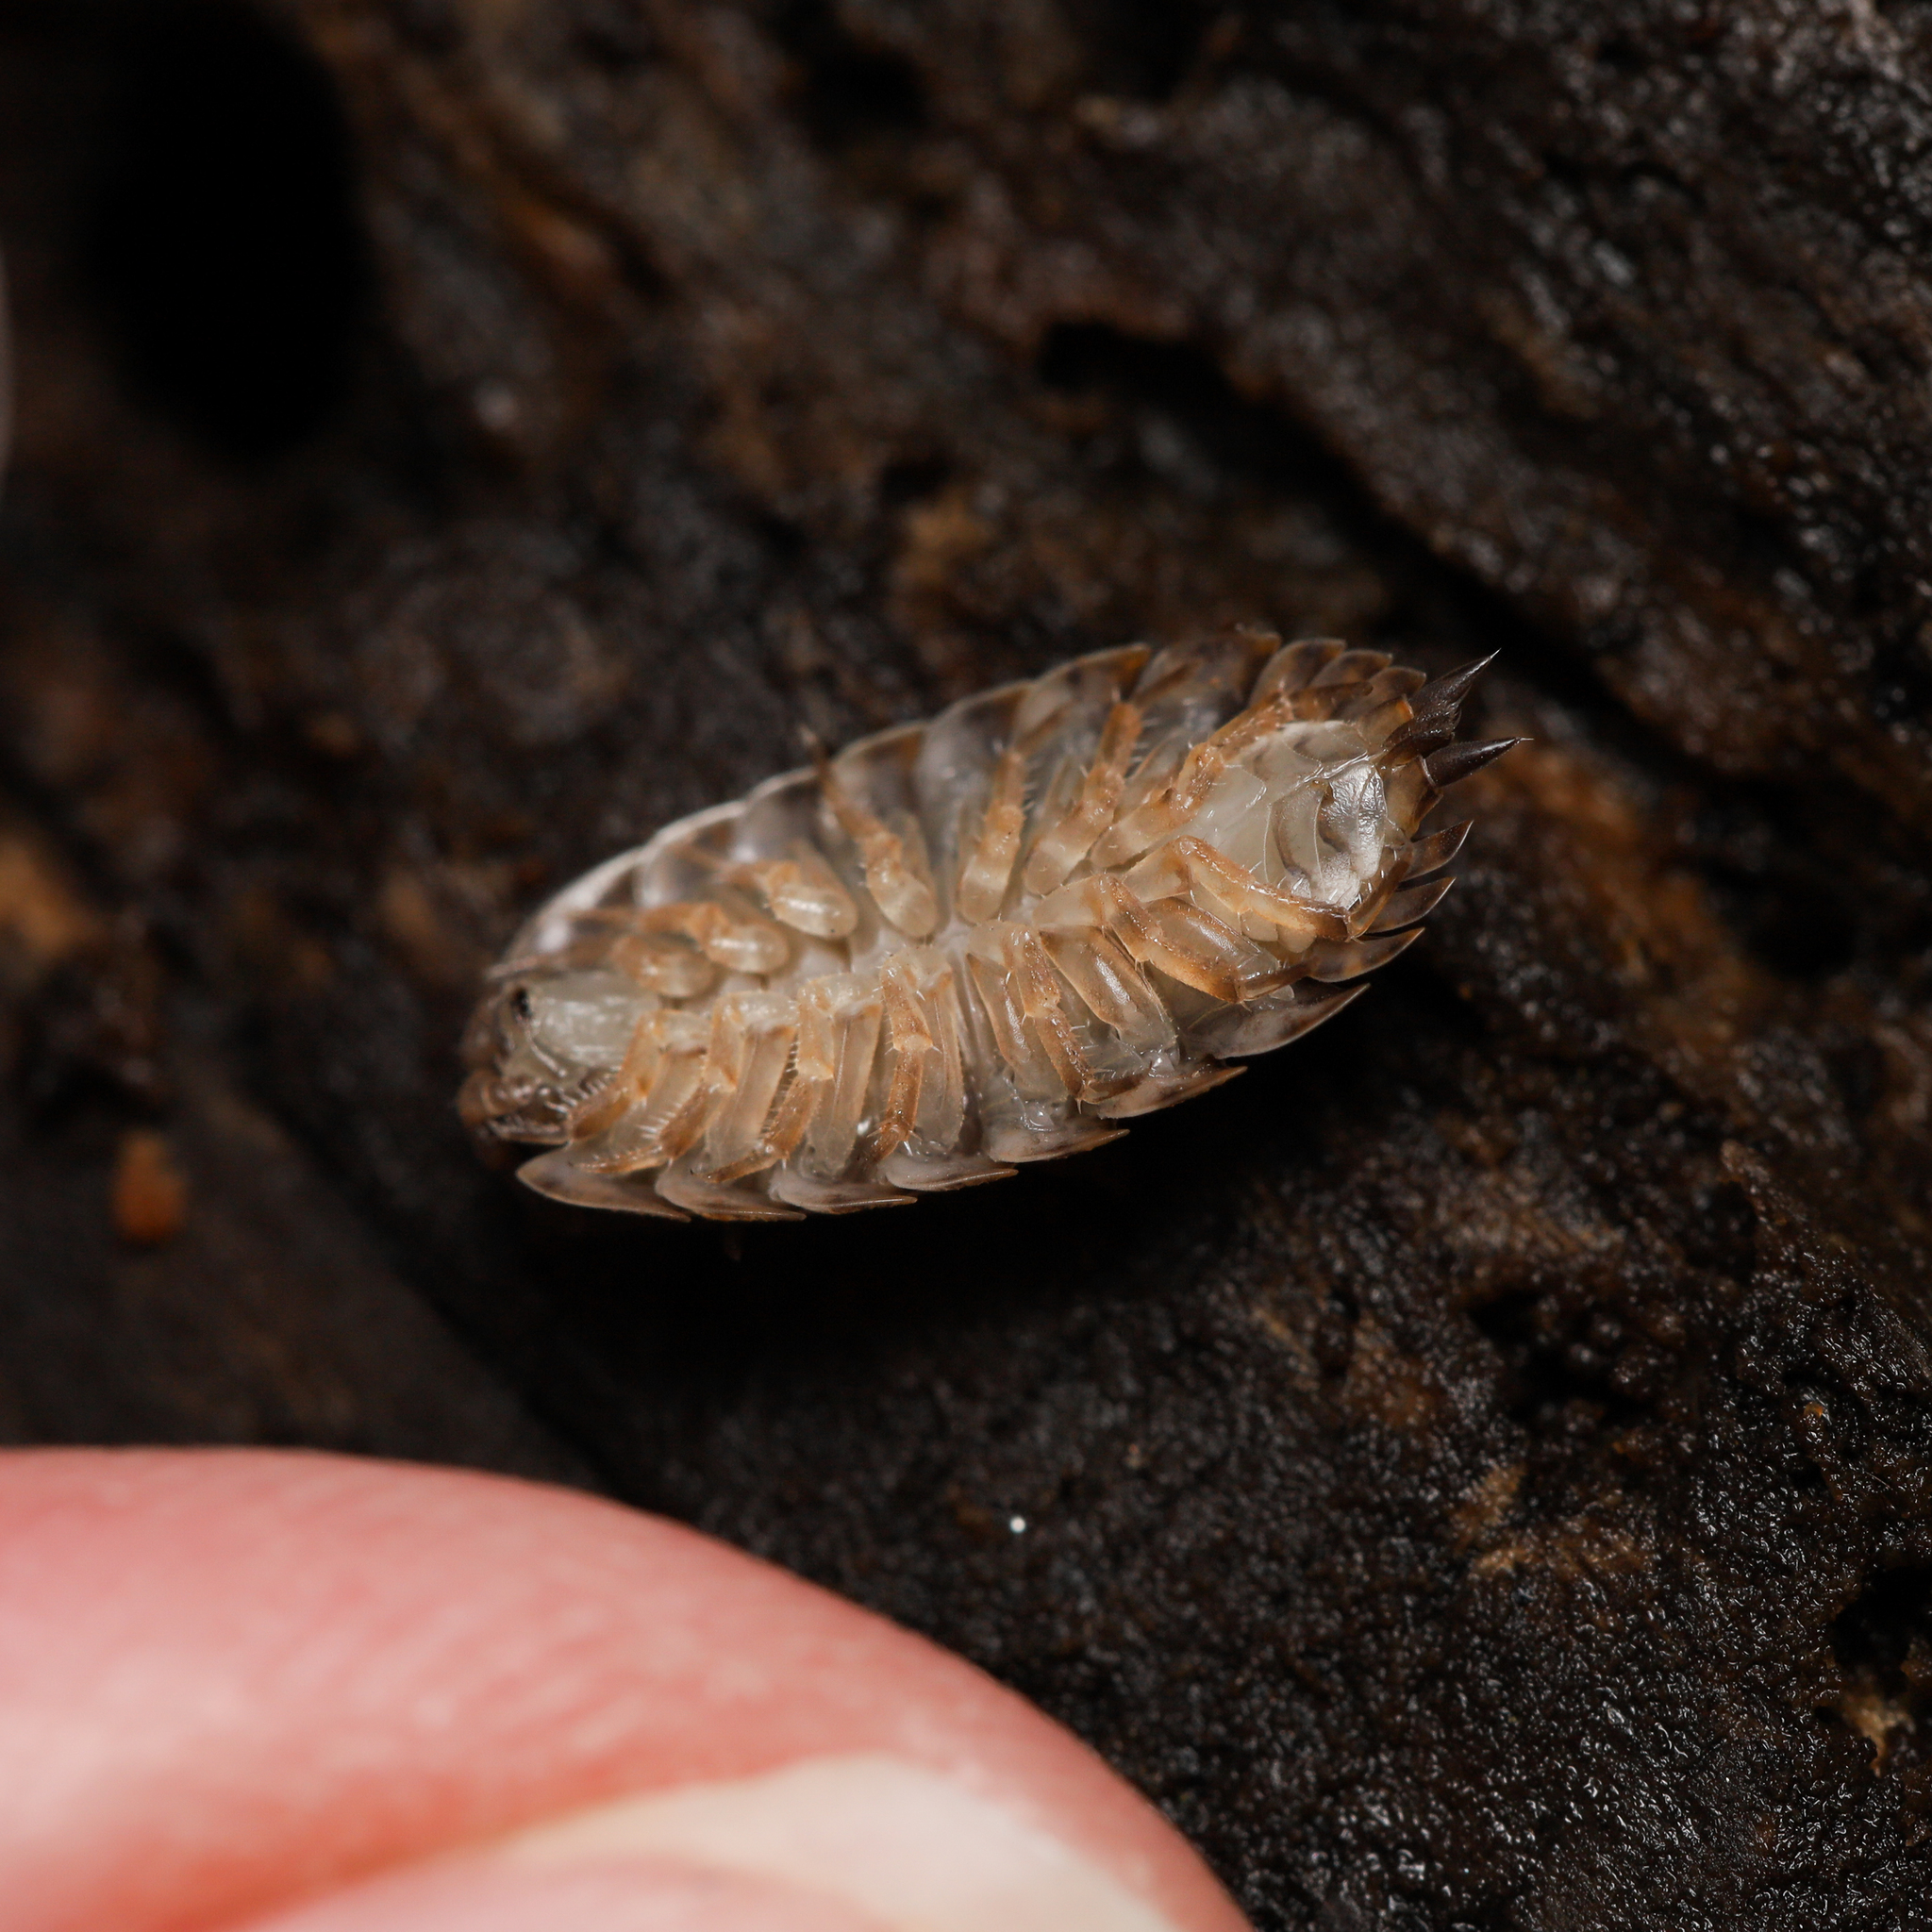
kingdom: Animalia
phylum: Arthropoda
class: Malacostraca
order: Isopoda
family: Trachelipodidae
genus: Trachelipus
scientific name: Trachelipus rathkii
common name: Isopod
